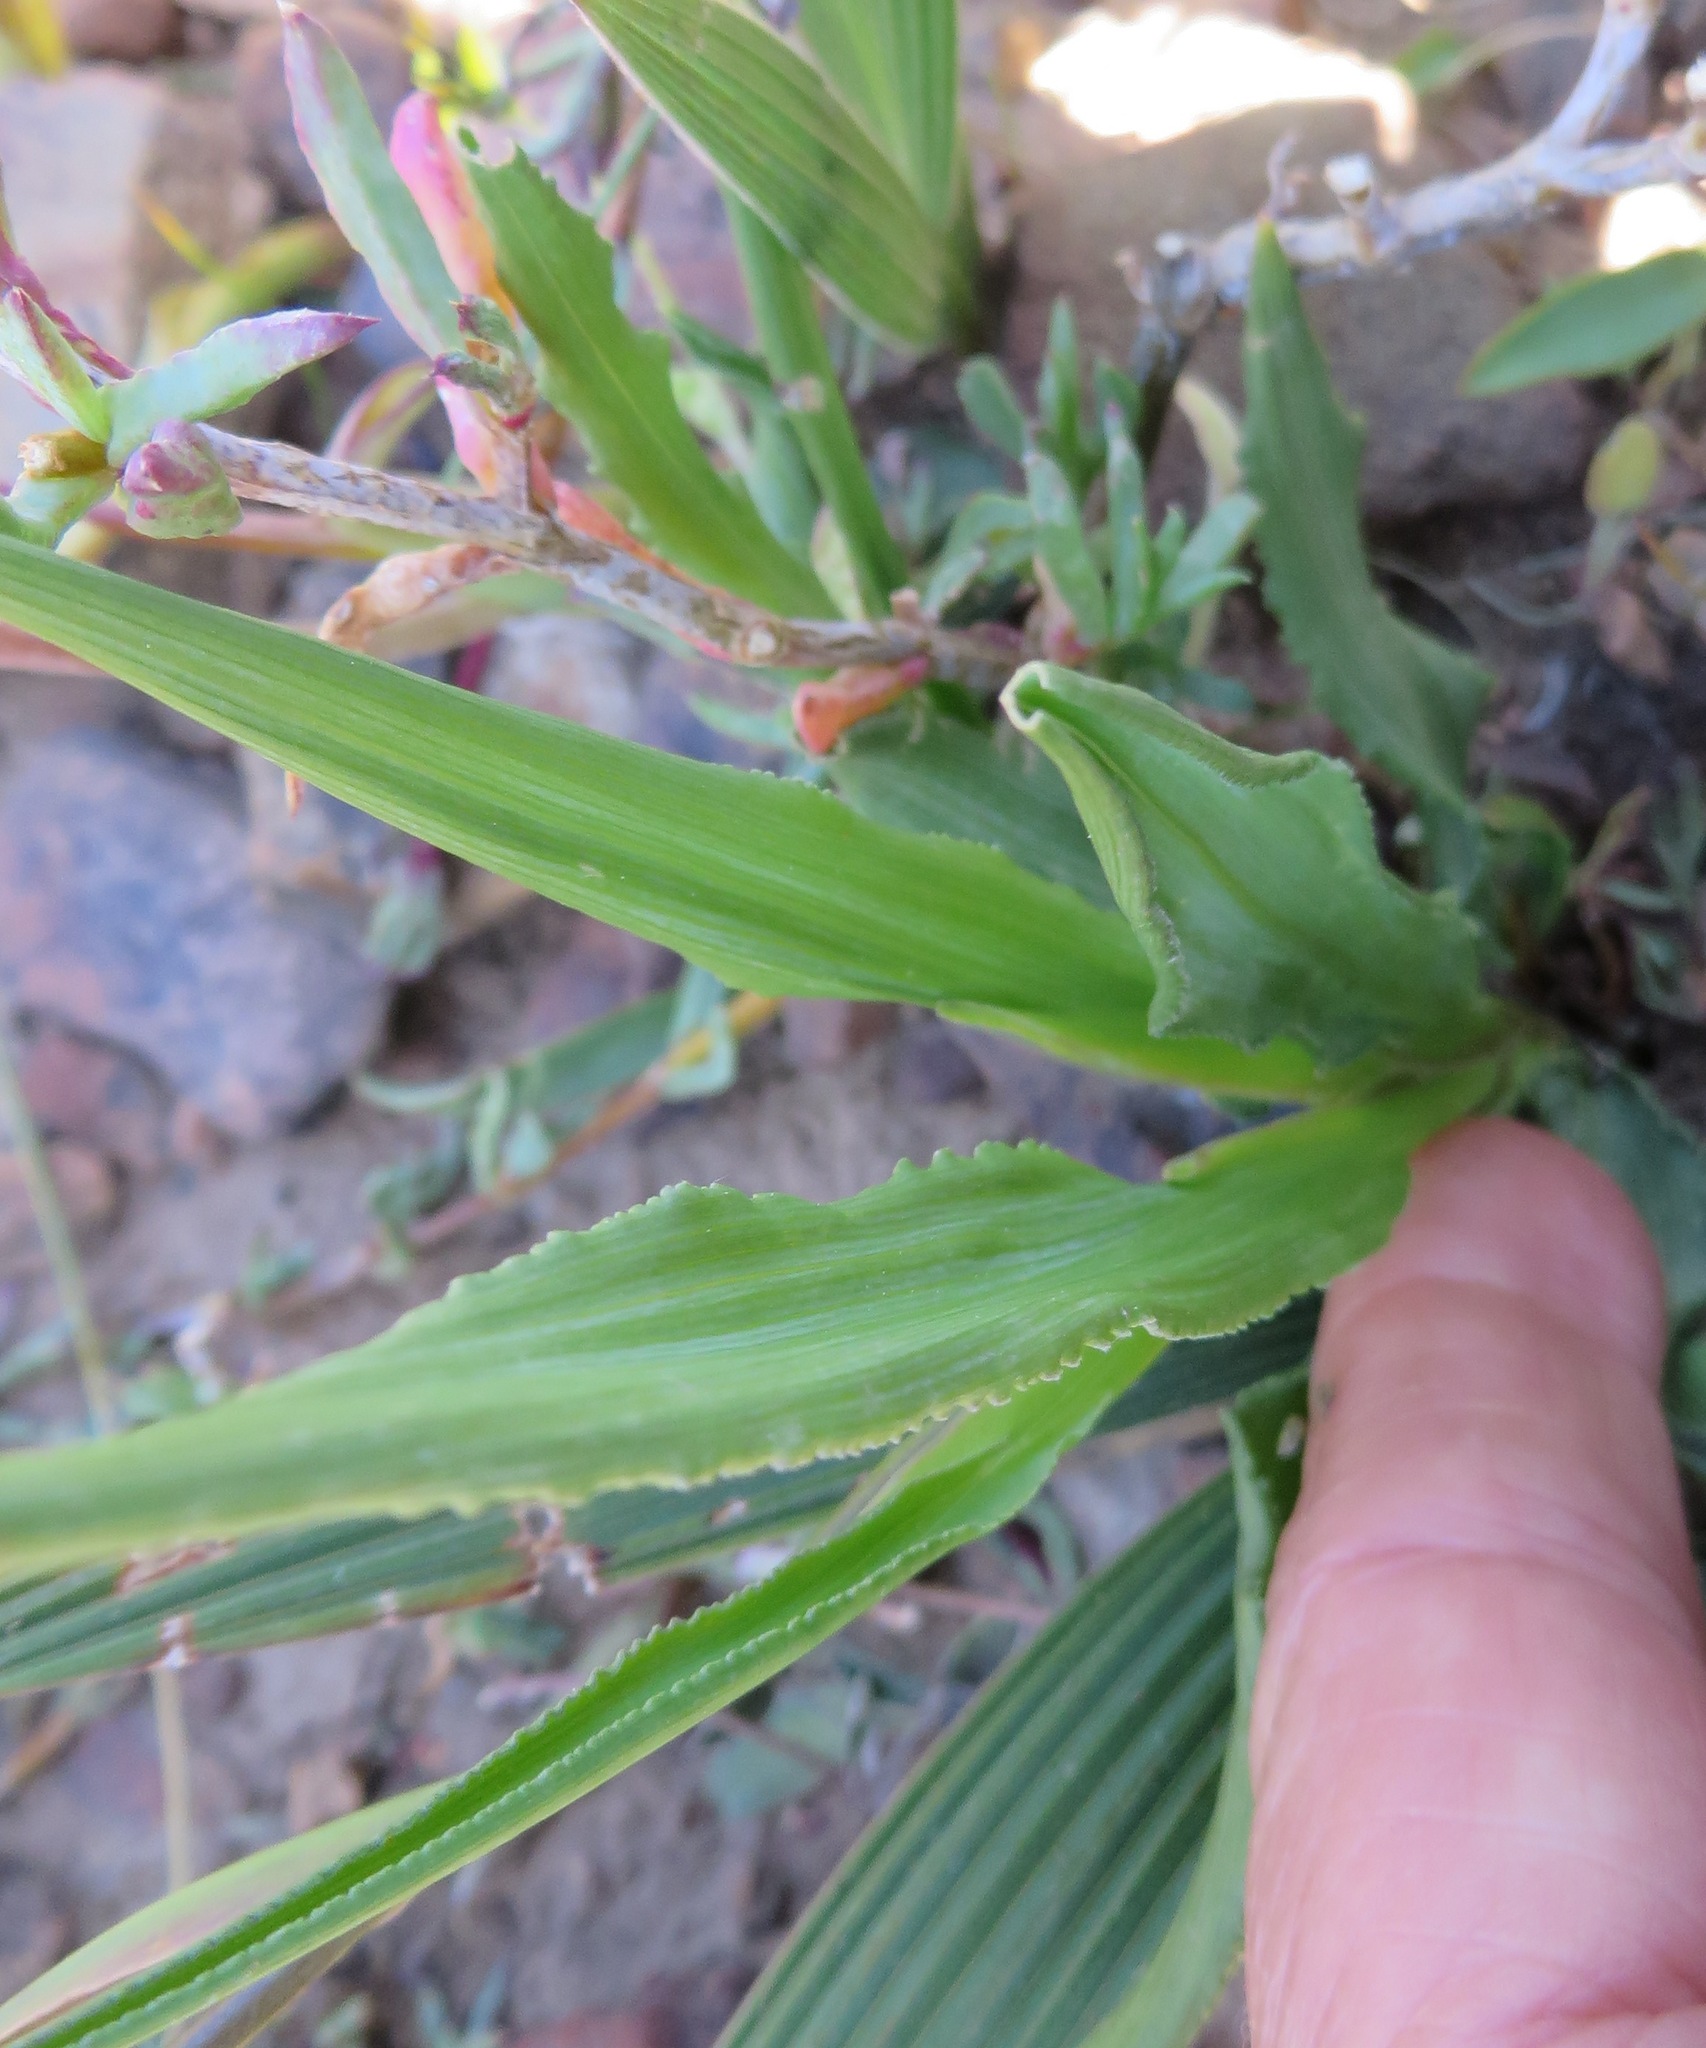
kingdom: Plantae
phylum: Tracheophyta
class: Liliopsida
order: Asparagales
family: Iridaceae
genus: Tritonia
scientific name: Tritonia undulata
